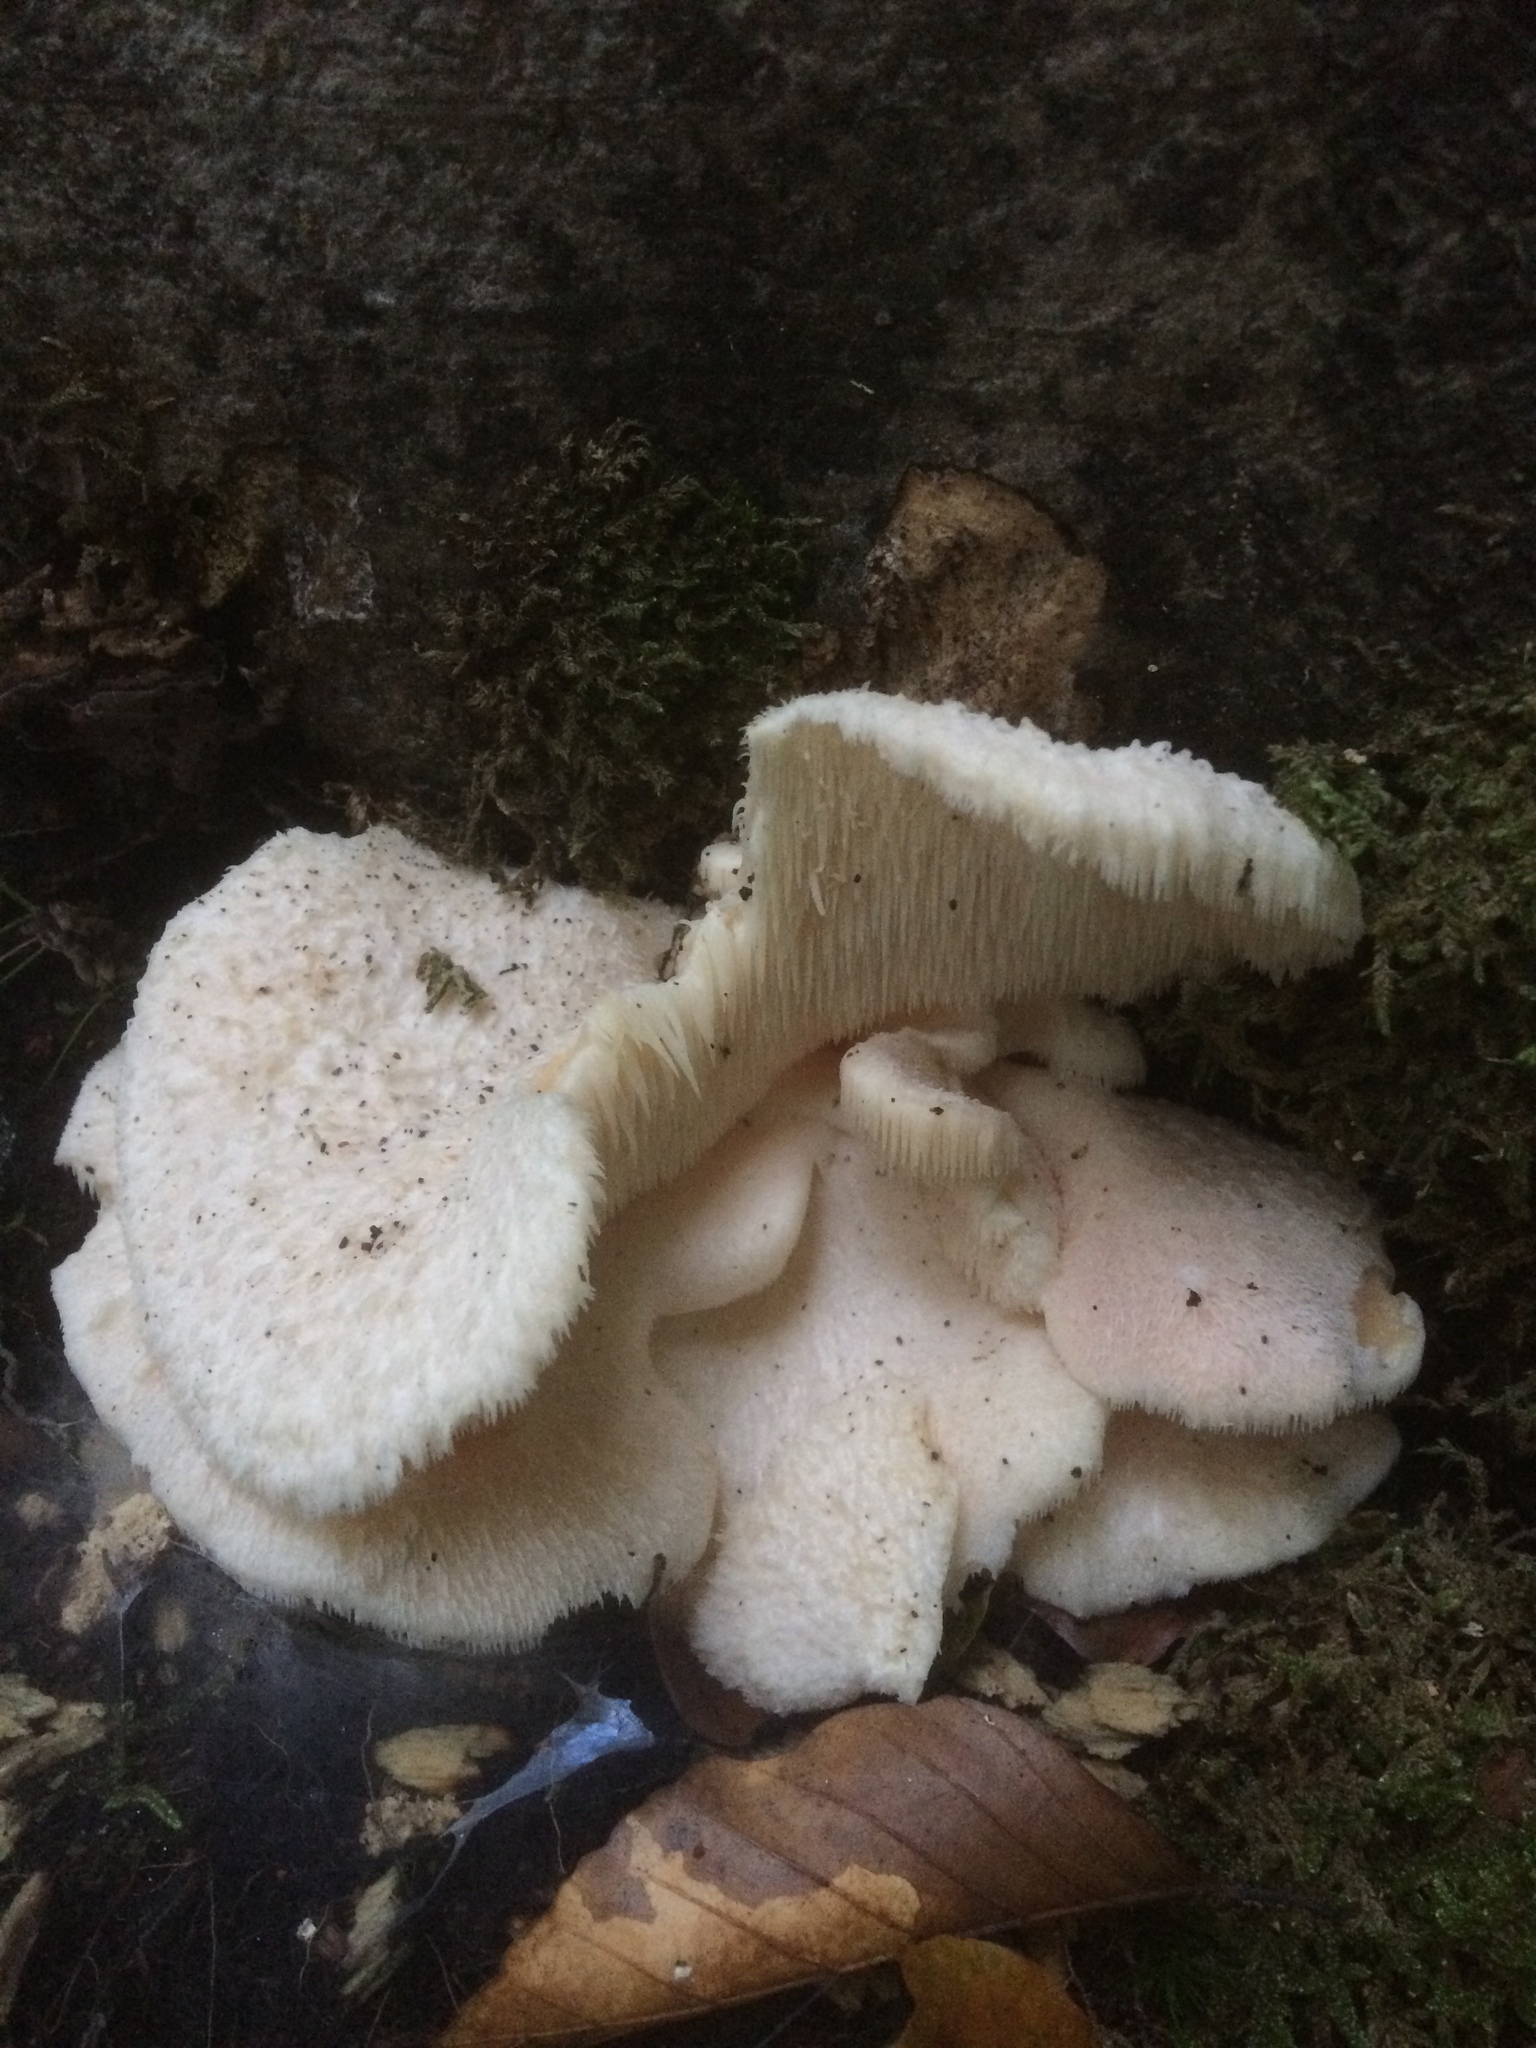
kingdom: Fungi
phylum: Basidiomycota
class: Agaricomycetes
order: Russulales
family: Hericiaceae
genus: Hericium
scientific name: Hericium cirrhatum
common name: Tiered tooth
